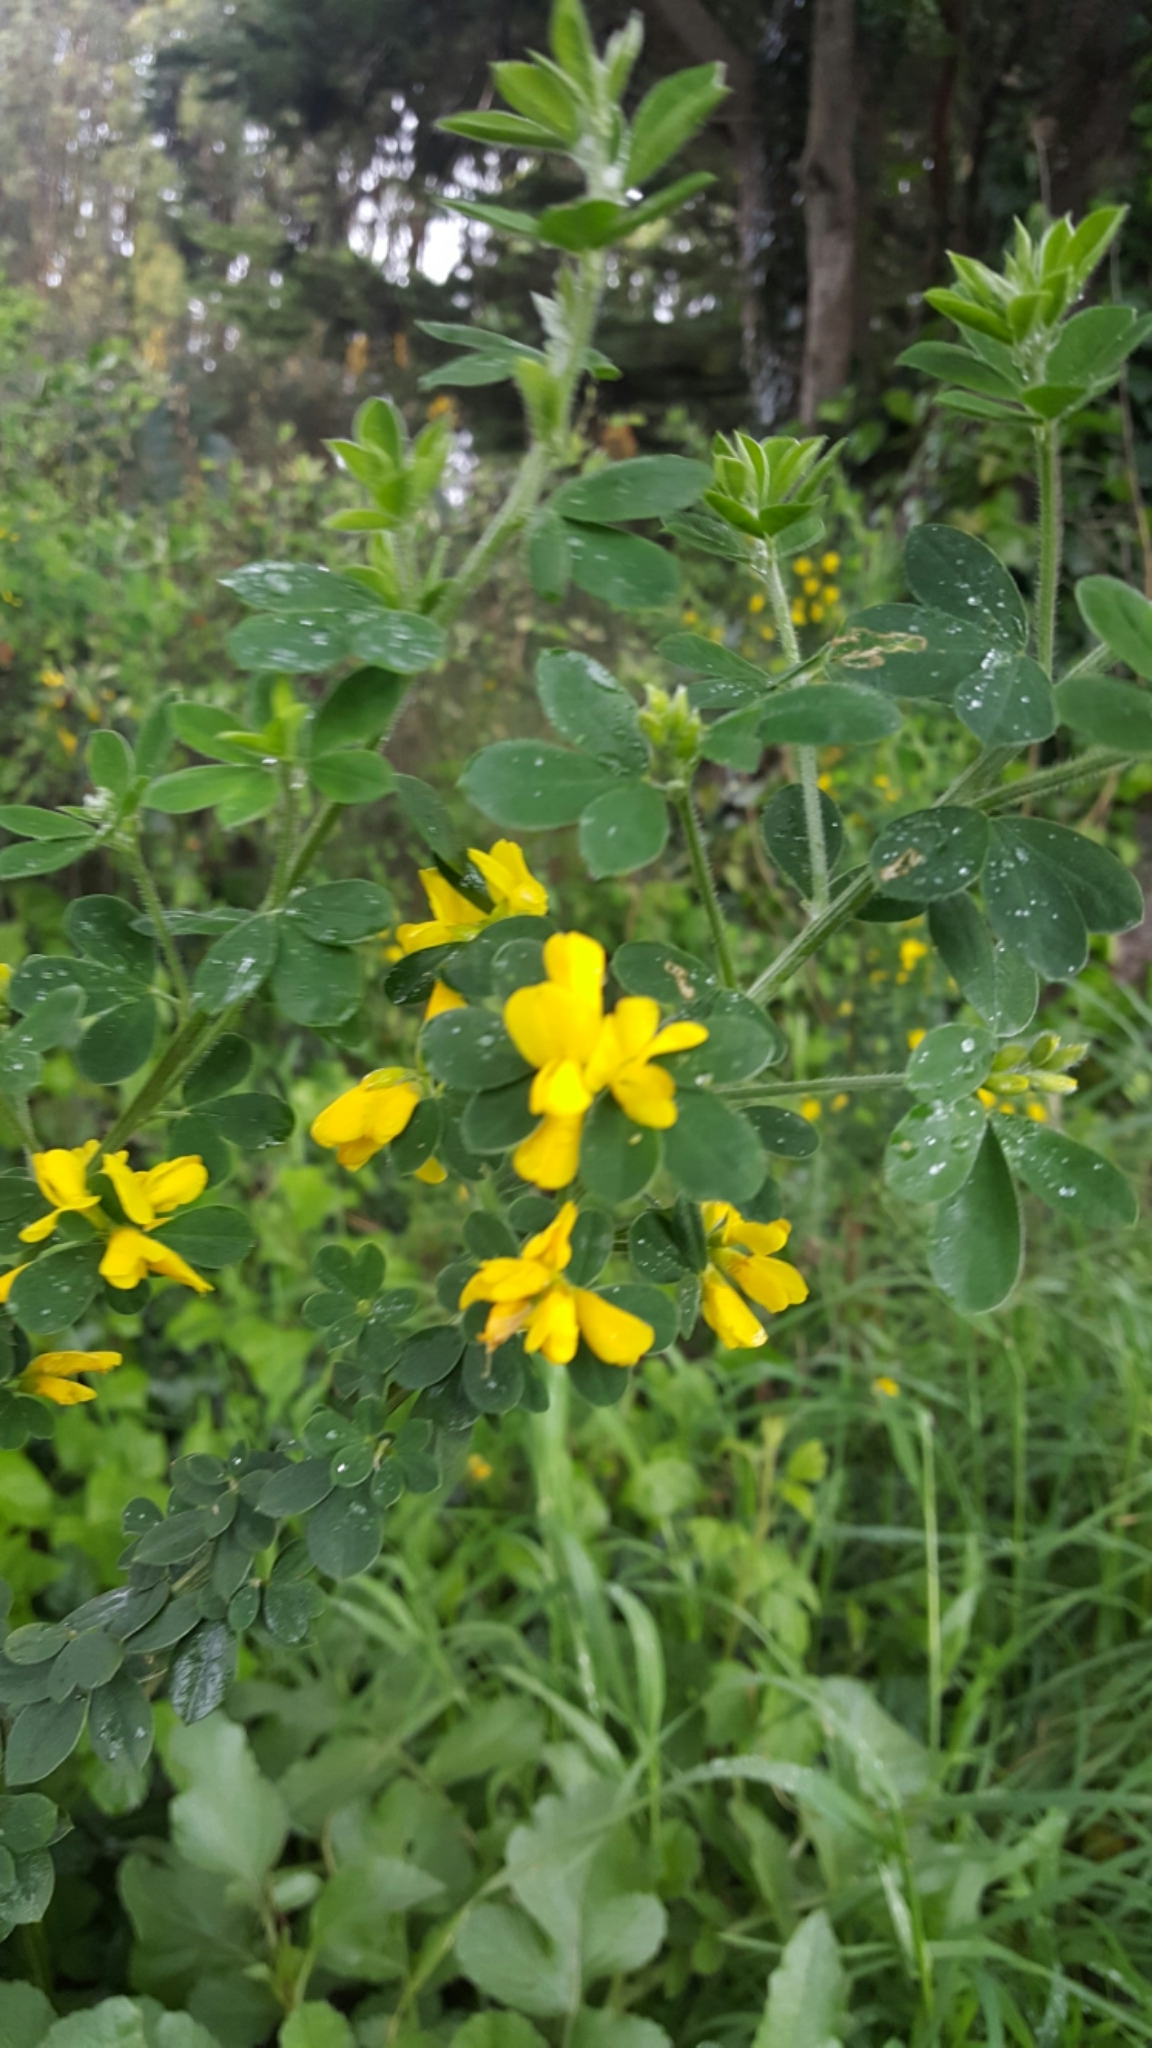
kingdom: Plantae
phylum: Tracheophyta
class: Magnoliopsida
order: Fabales
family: Fabaceae
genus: Genista
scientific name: Genista monspessulana
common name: Montpellier broom
